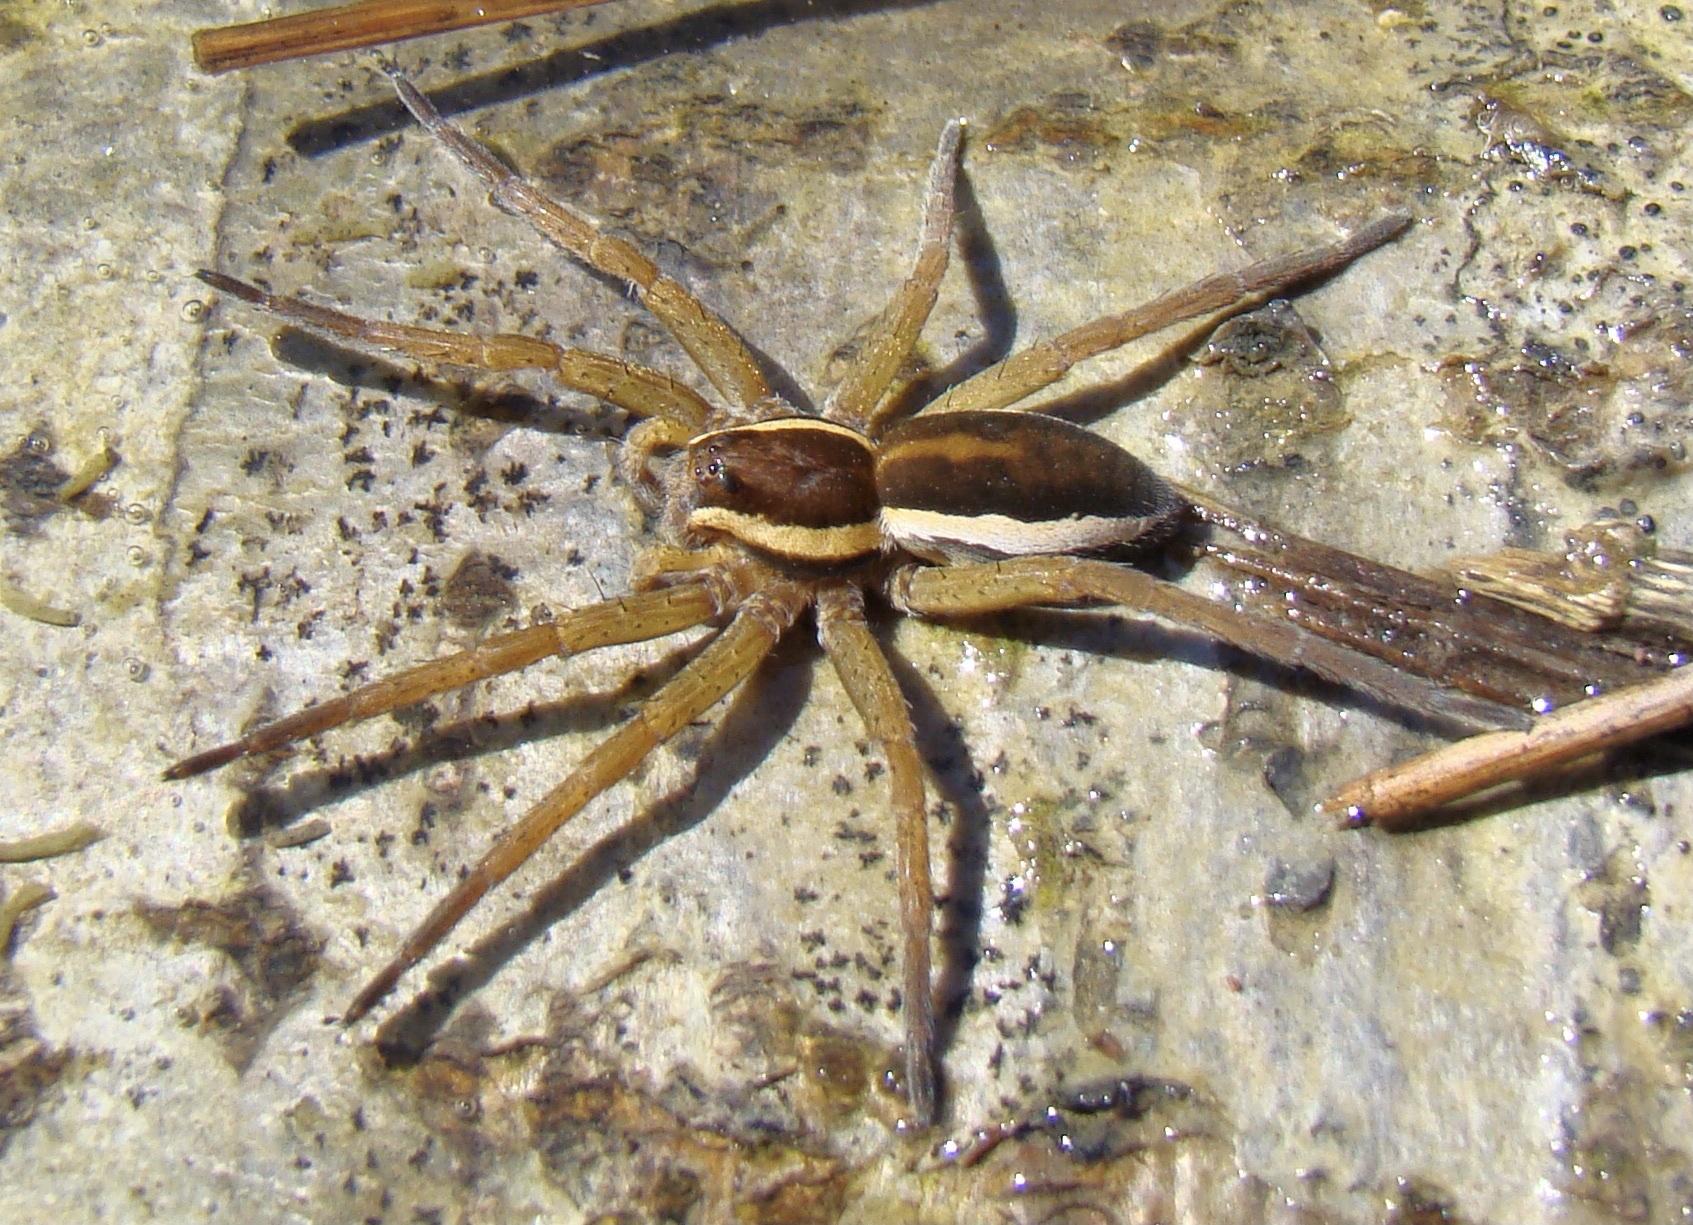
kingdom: Animalia
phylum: Arthropoda
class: Arachnida
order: Araneae
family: Pisauridae
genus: Dolomedes
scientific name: Dolomedes fimbriatus
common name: Raft spider
